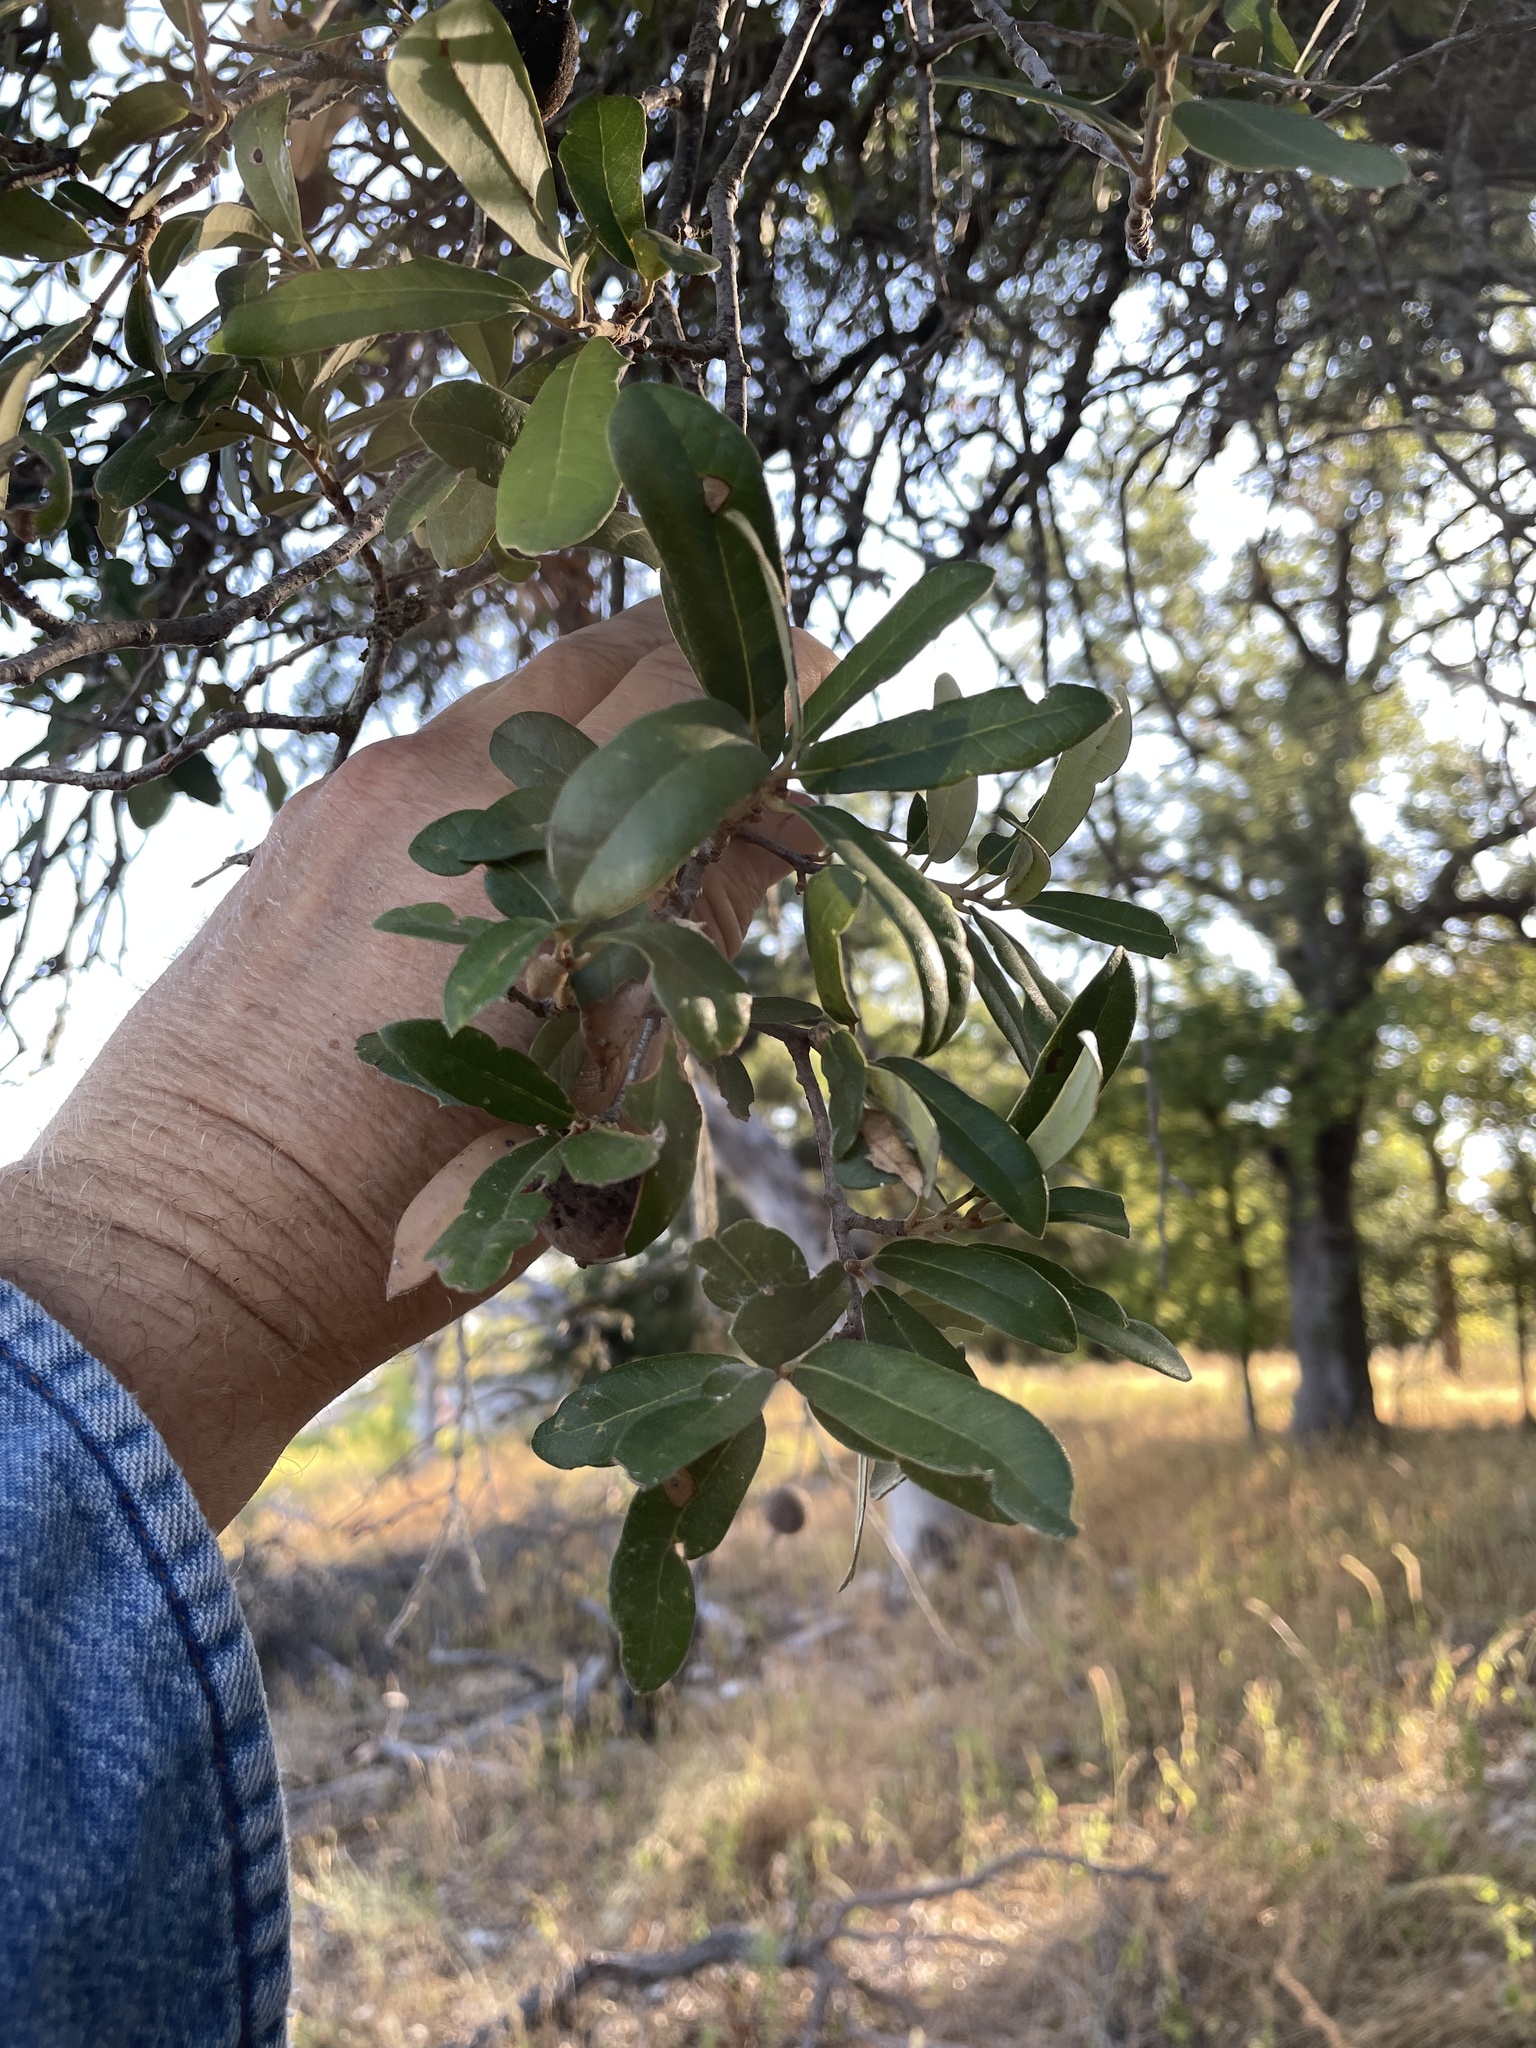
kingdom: Plantae
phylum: Tracheophyta
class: Magnoliopsida
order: Fagales
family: Fagaceae
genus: Quercus
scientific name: Quercus fusiformis
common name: Texas live oak
